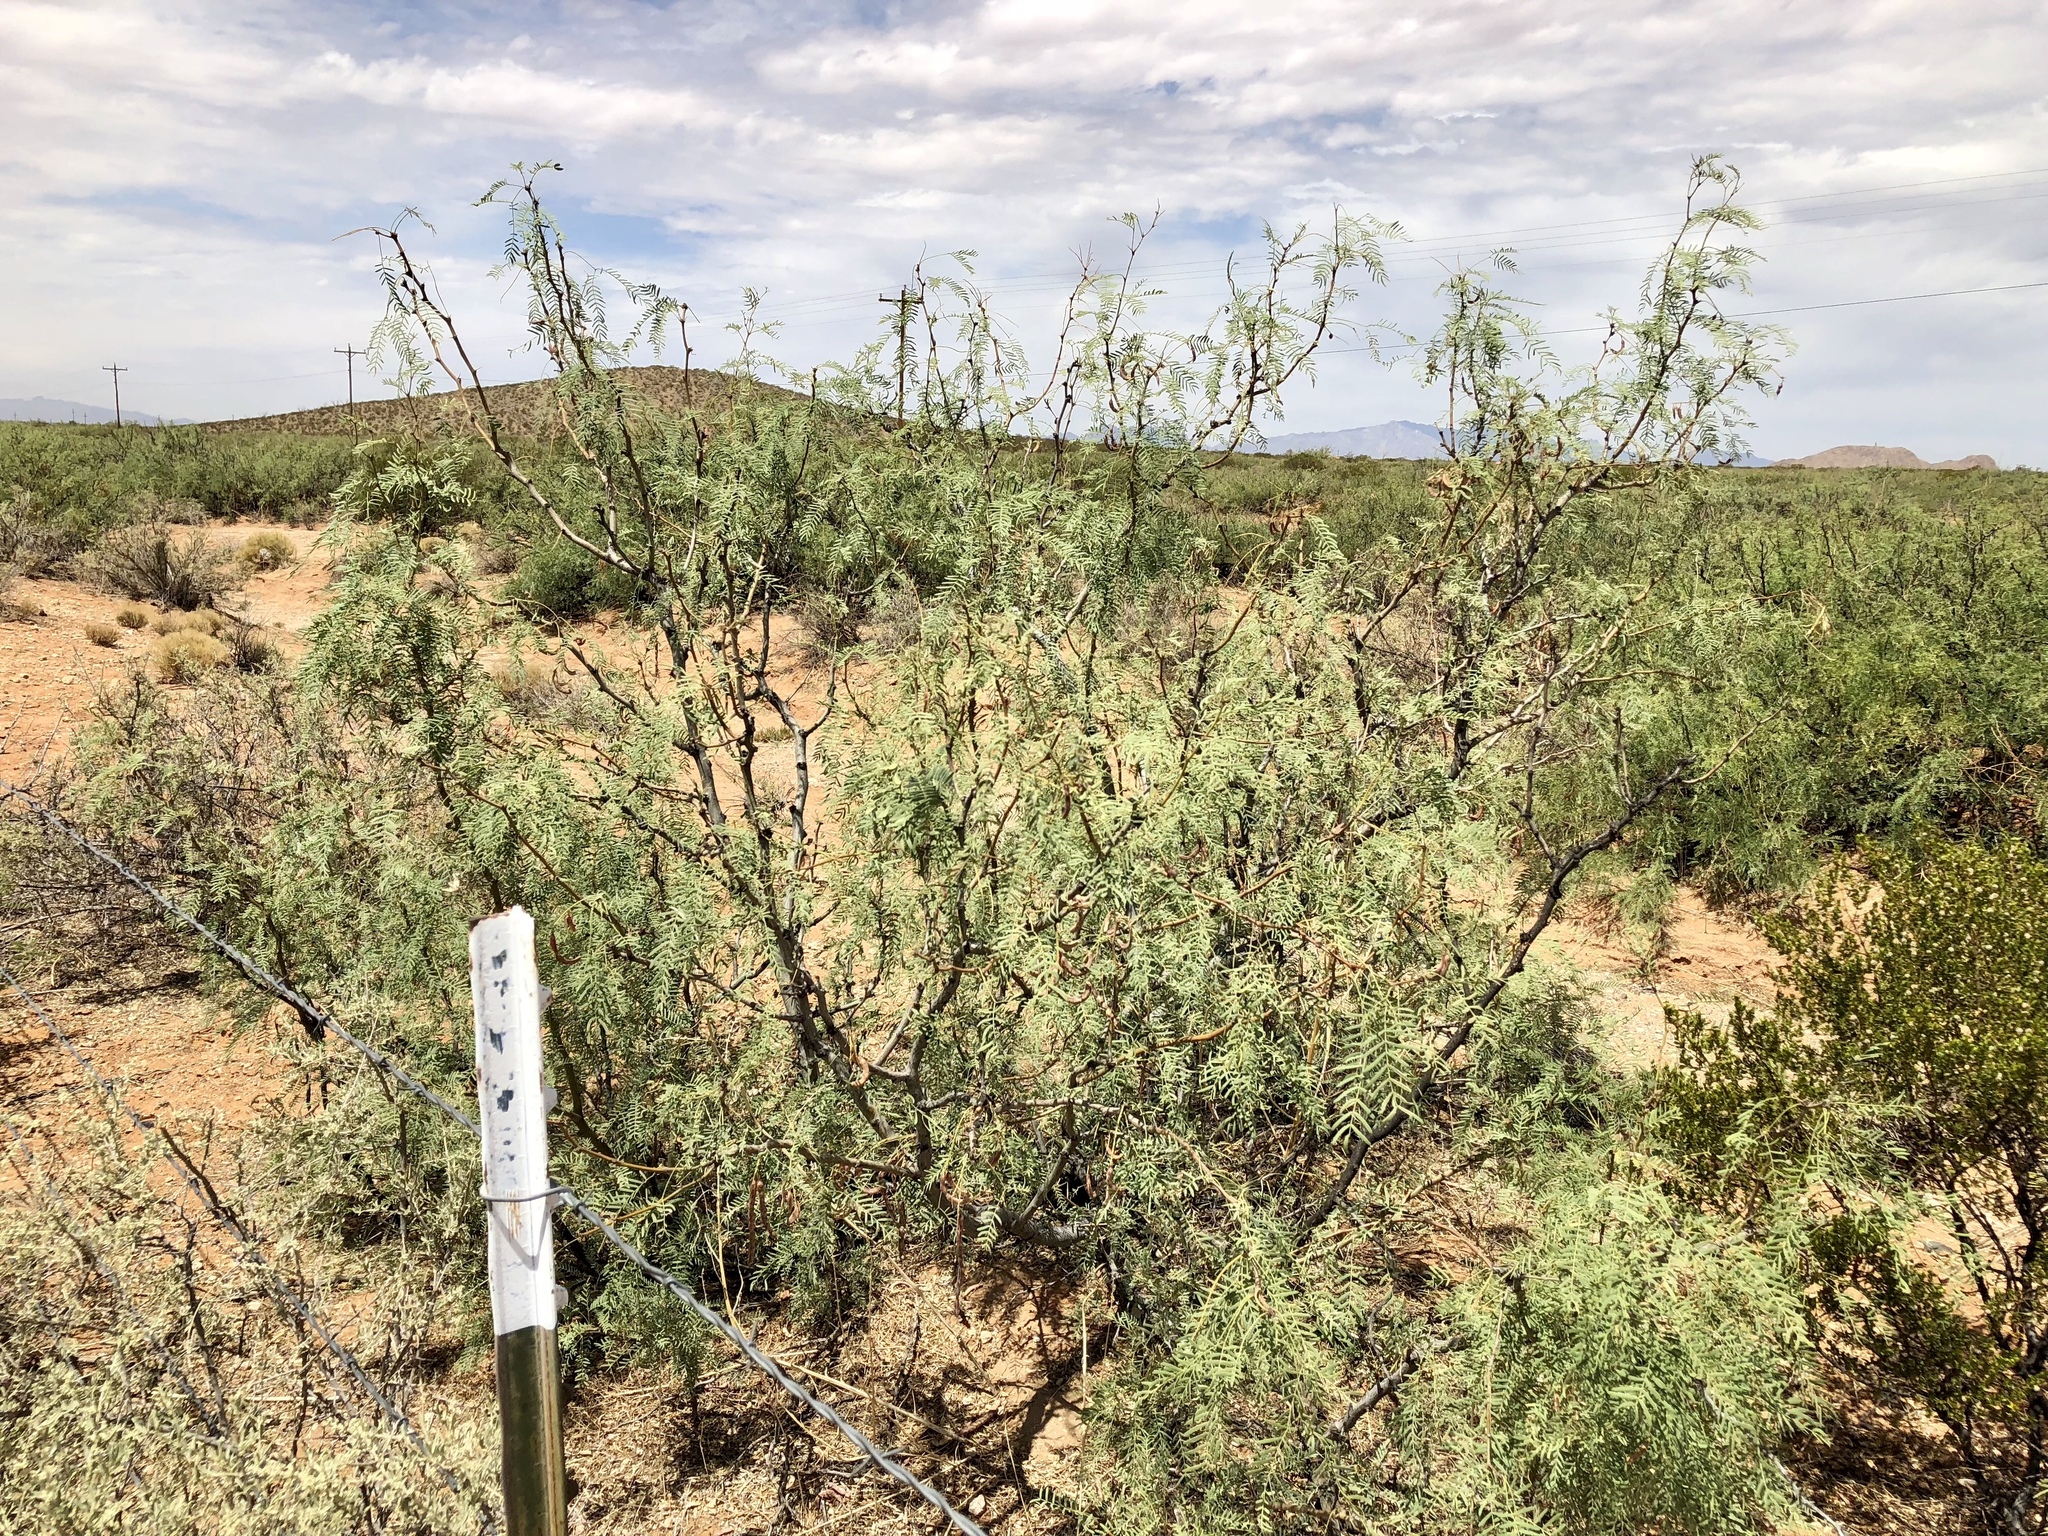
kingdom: Plantae
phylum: Tracheophyta
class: Magnoliopsida
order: Fabales
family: Fabaceae
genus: Prosopis
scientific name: Prosopis glandulosa
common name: Honey mesquite
